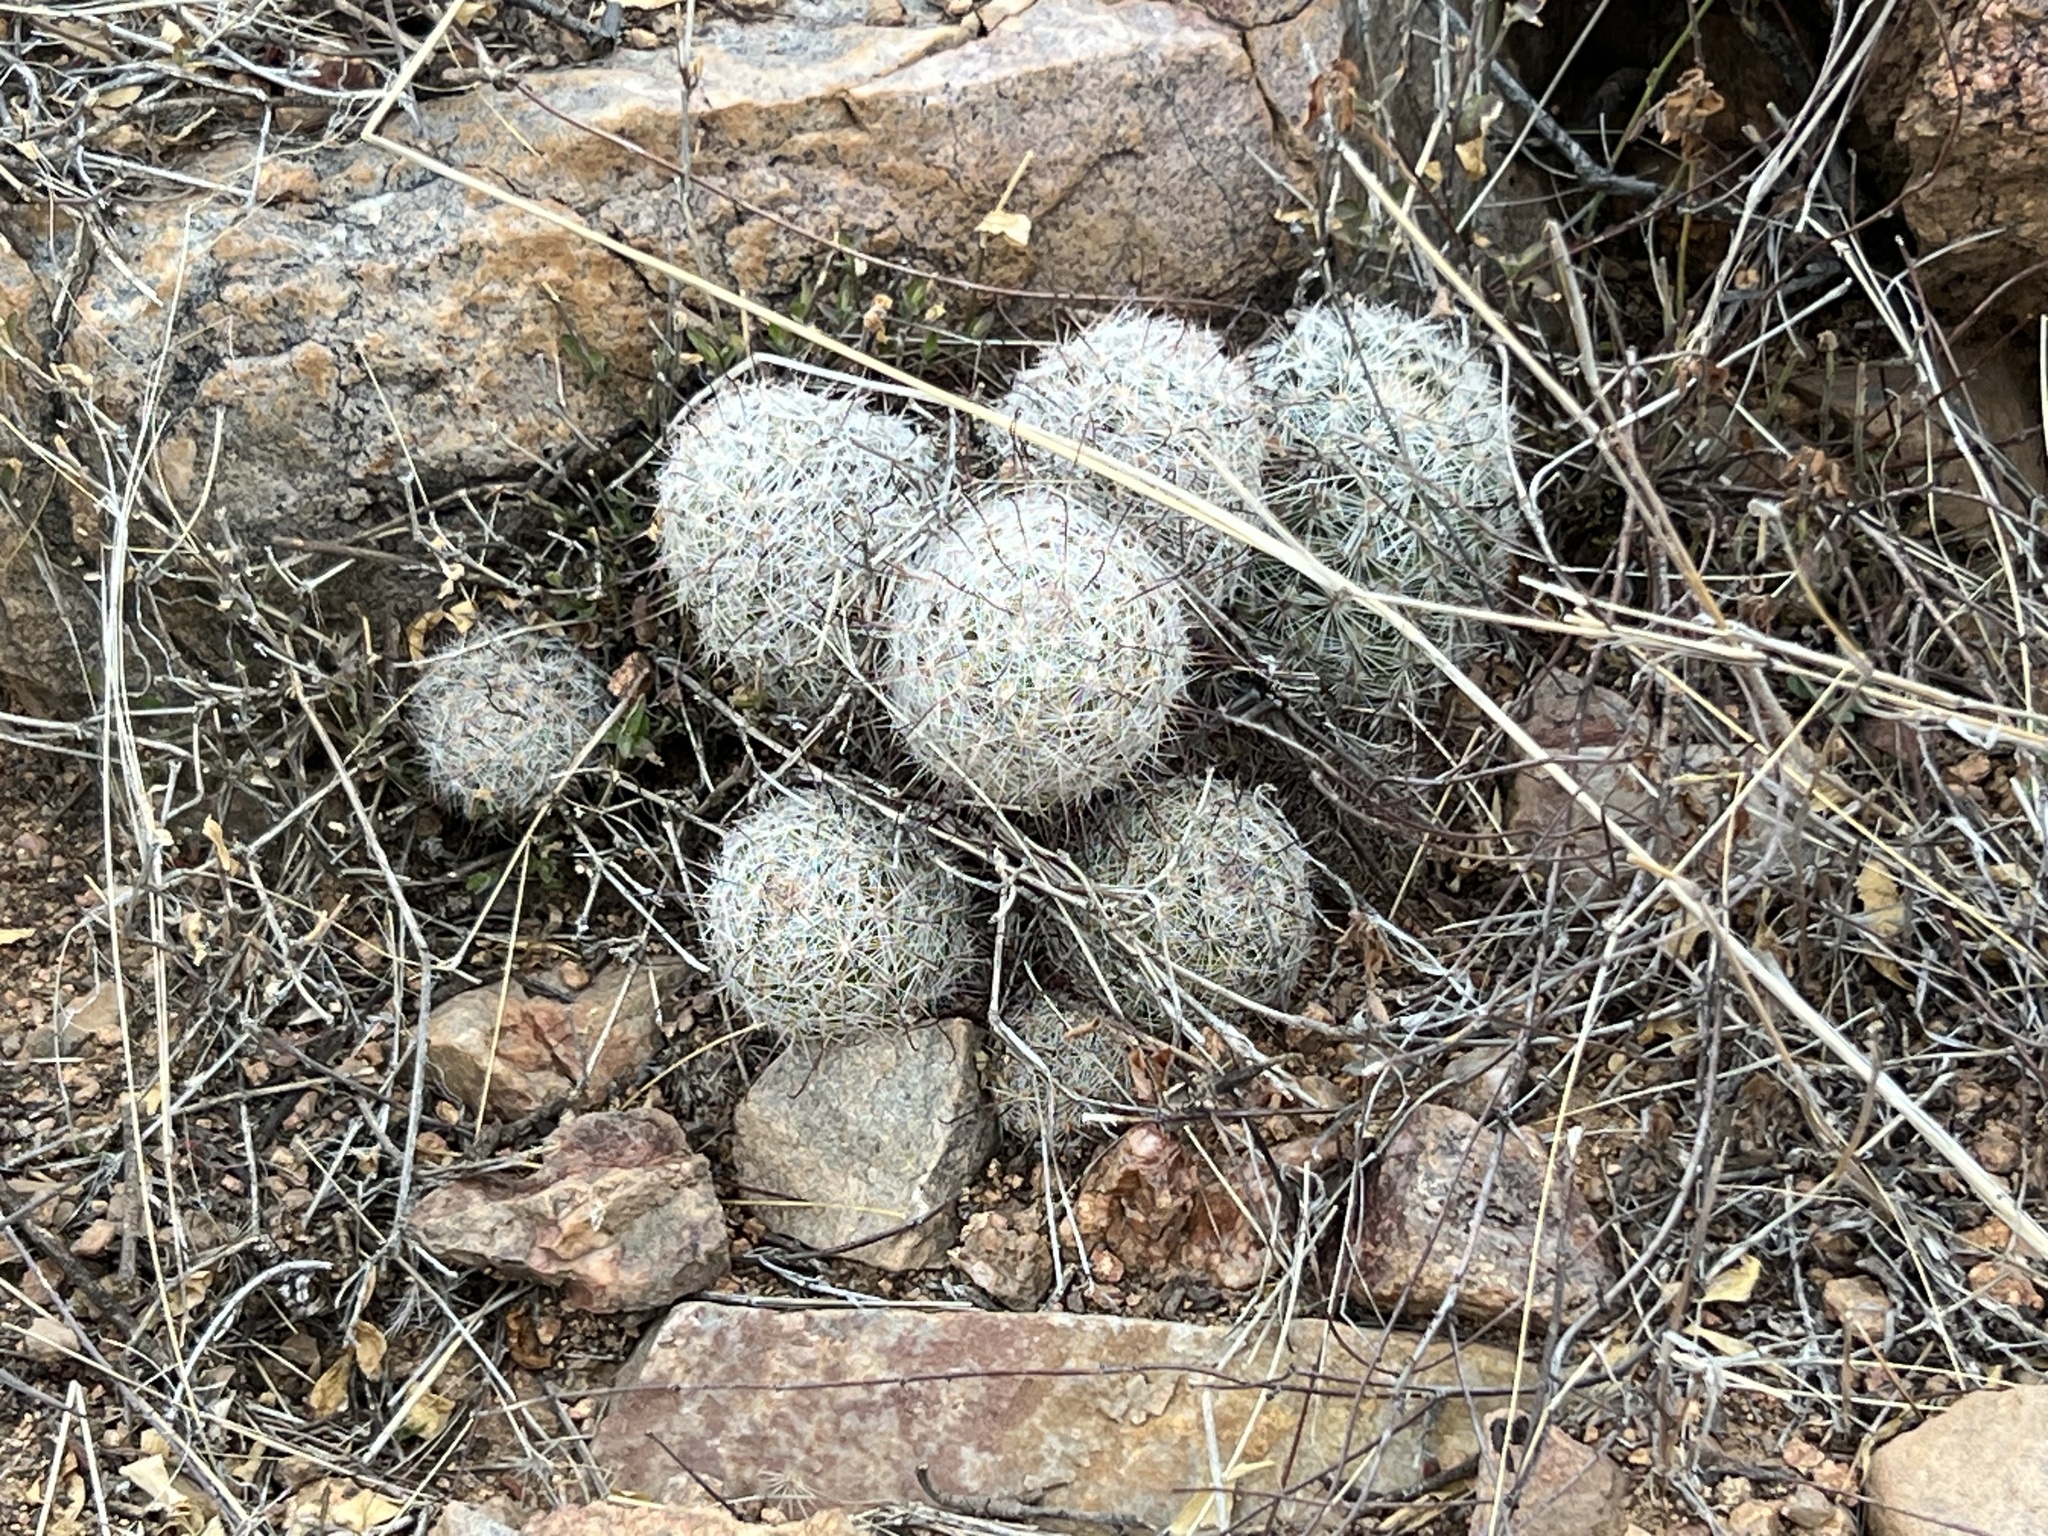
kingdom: Plantae
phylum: Tracheophyta
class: Magnoliopsida
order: Caryophyllales
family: Cactaceae
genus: Cochemiea
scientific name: Cochemiea grahamii
